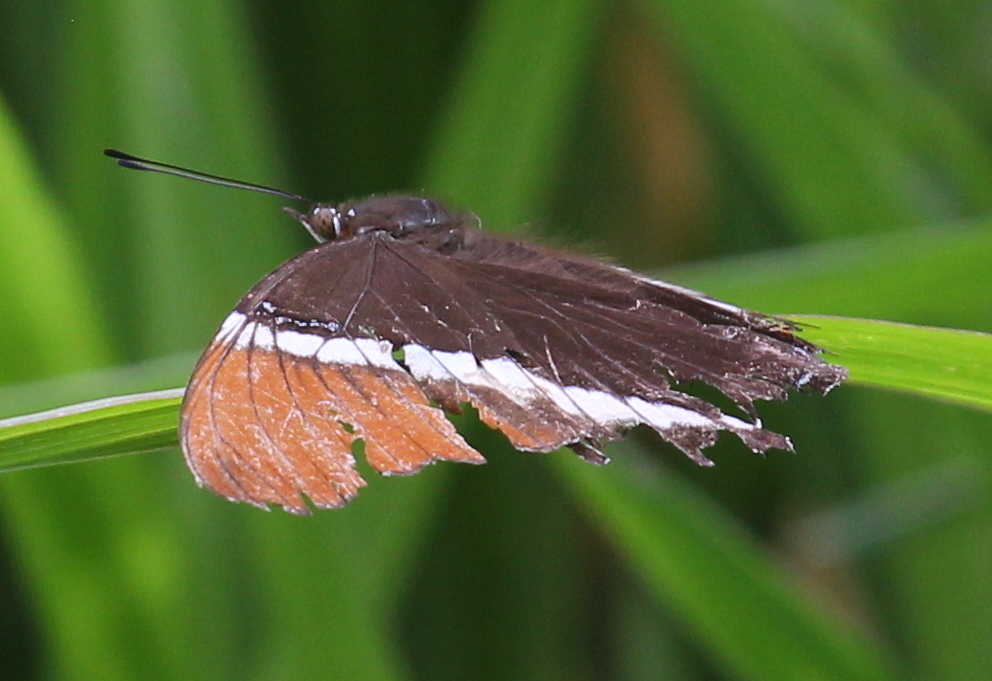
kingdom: Animalia
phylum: Arthropoda
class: Insecta
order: Lepidoptera
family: Nymphalidae
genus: Siproeta
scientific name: Siproeta epaphus
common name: Rusty-tipped page
